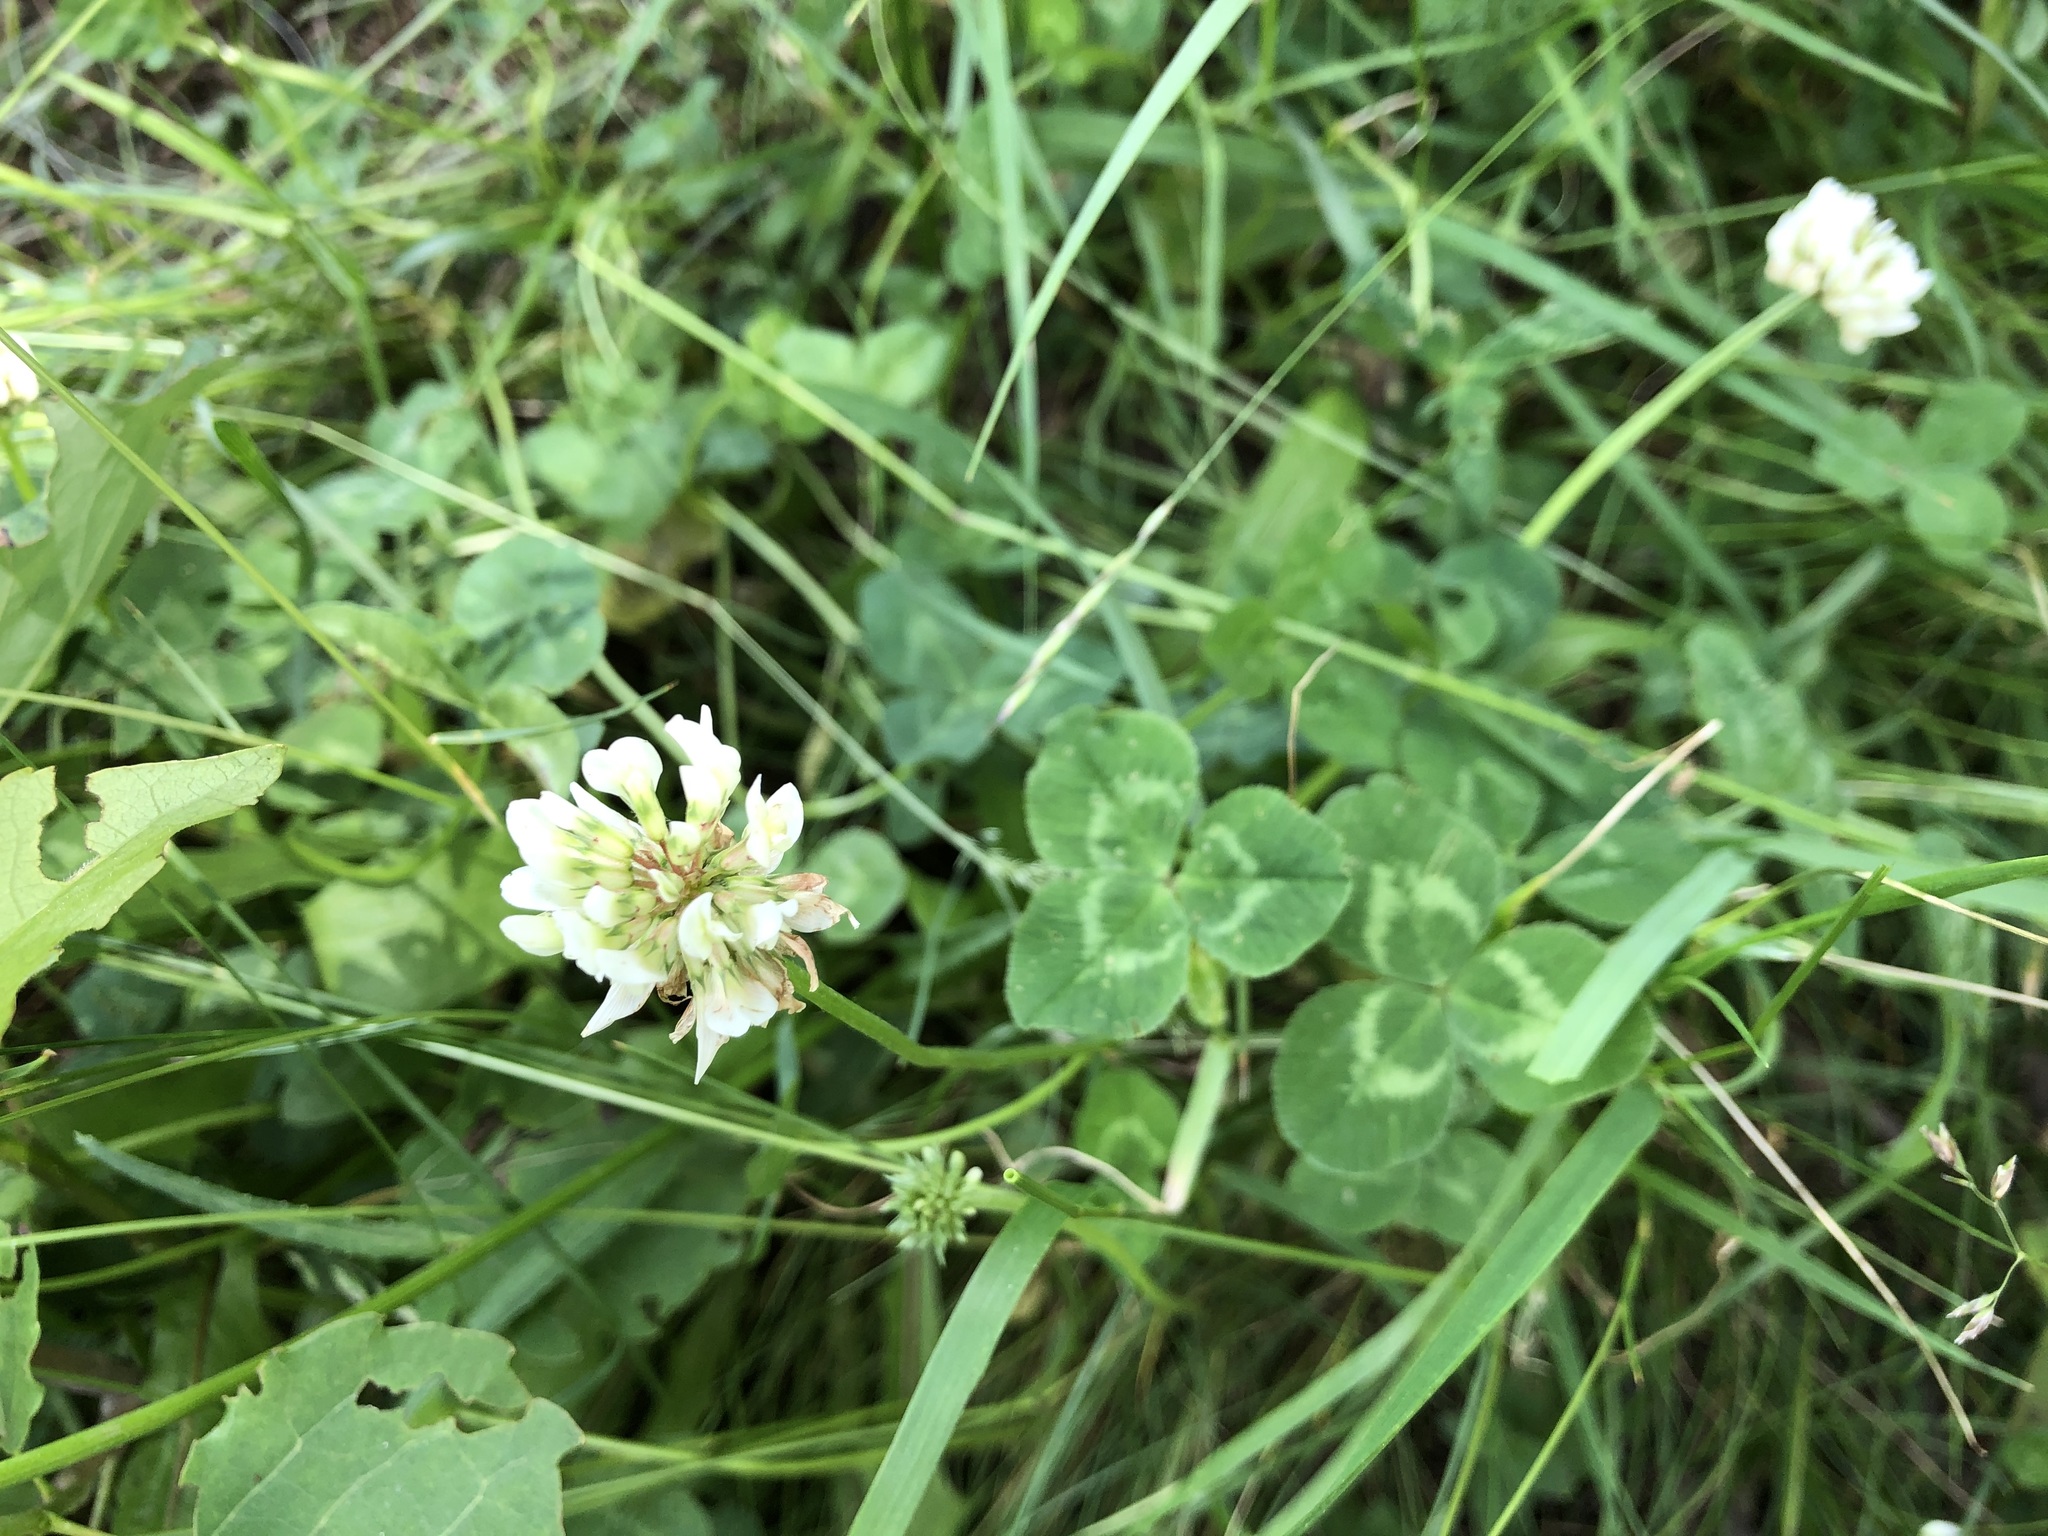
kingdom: Plantae
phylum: Tracheophyta
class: Magnoliopsida
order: Fabales
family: Fabaceae
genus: Trifolium
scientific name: Trifolium repens
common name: White clover
